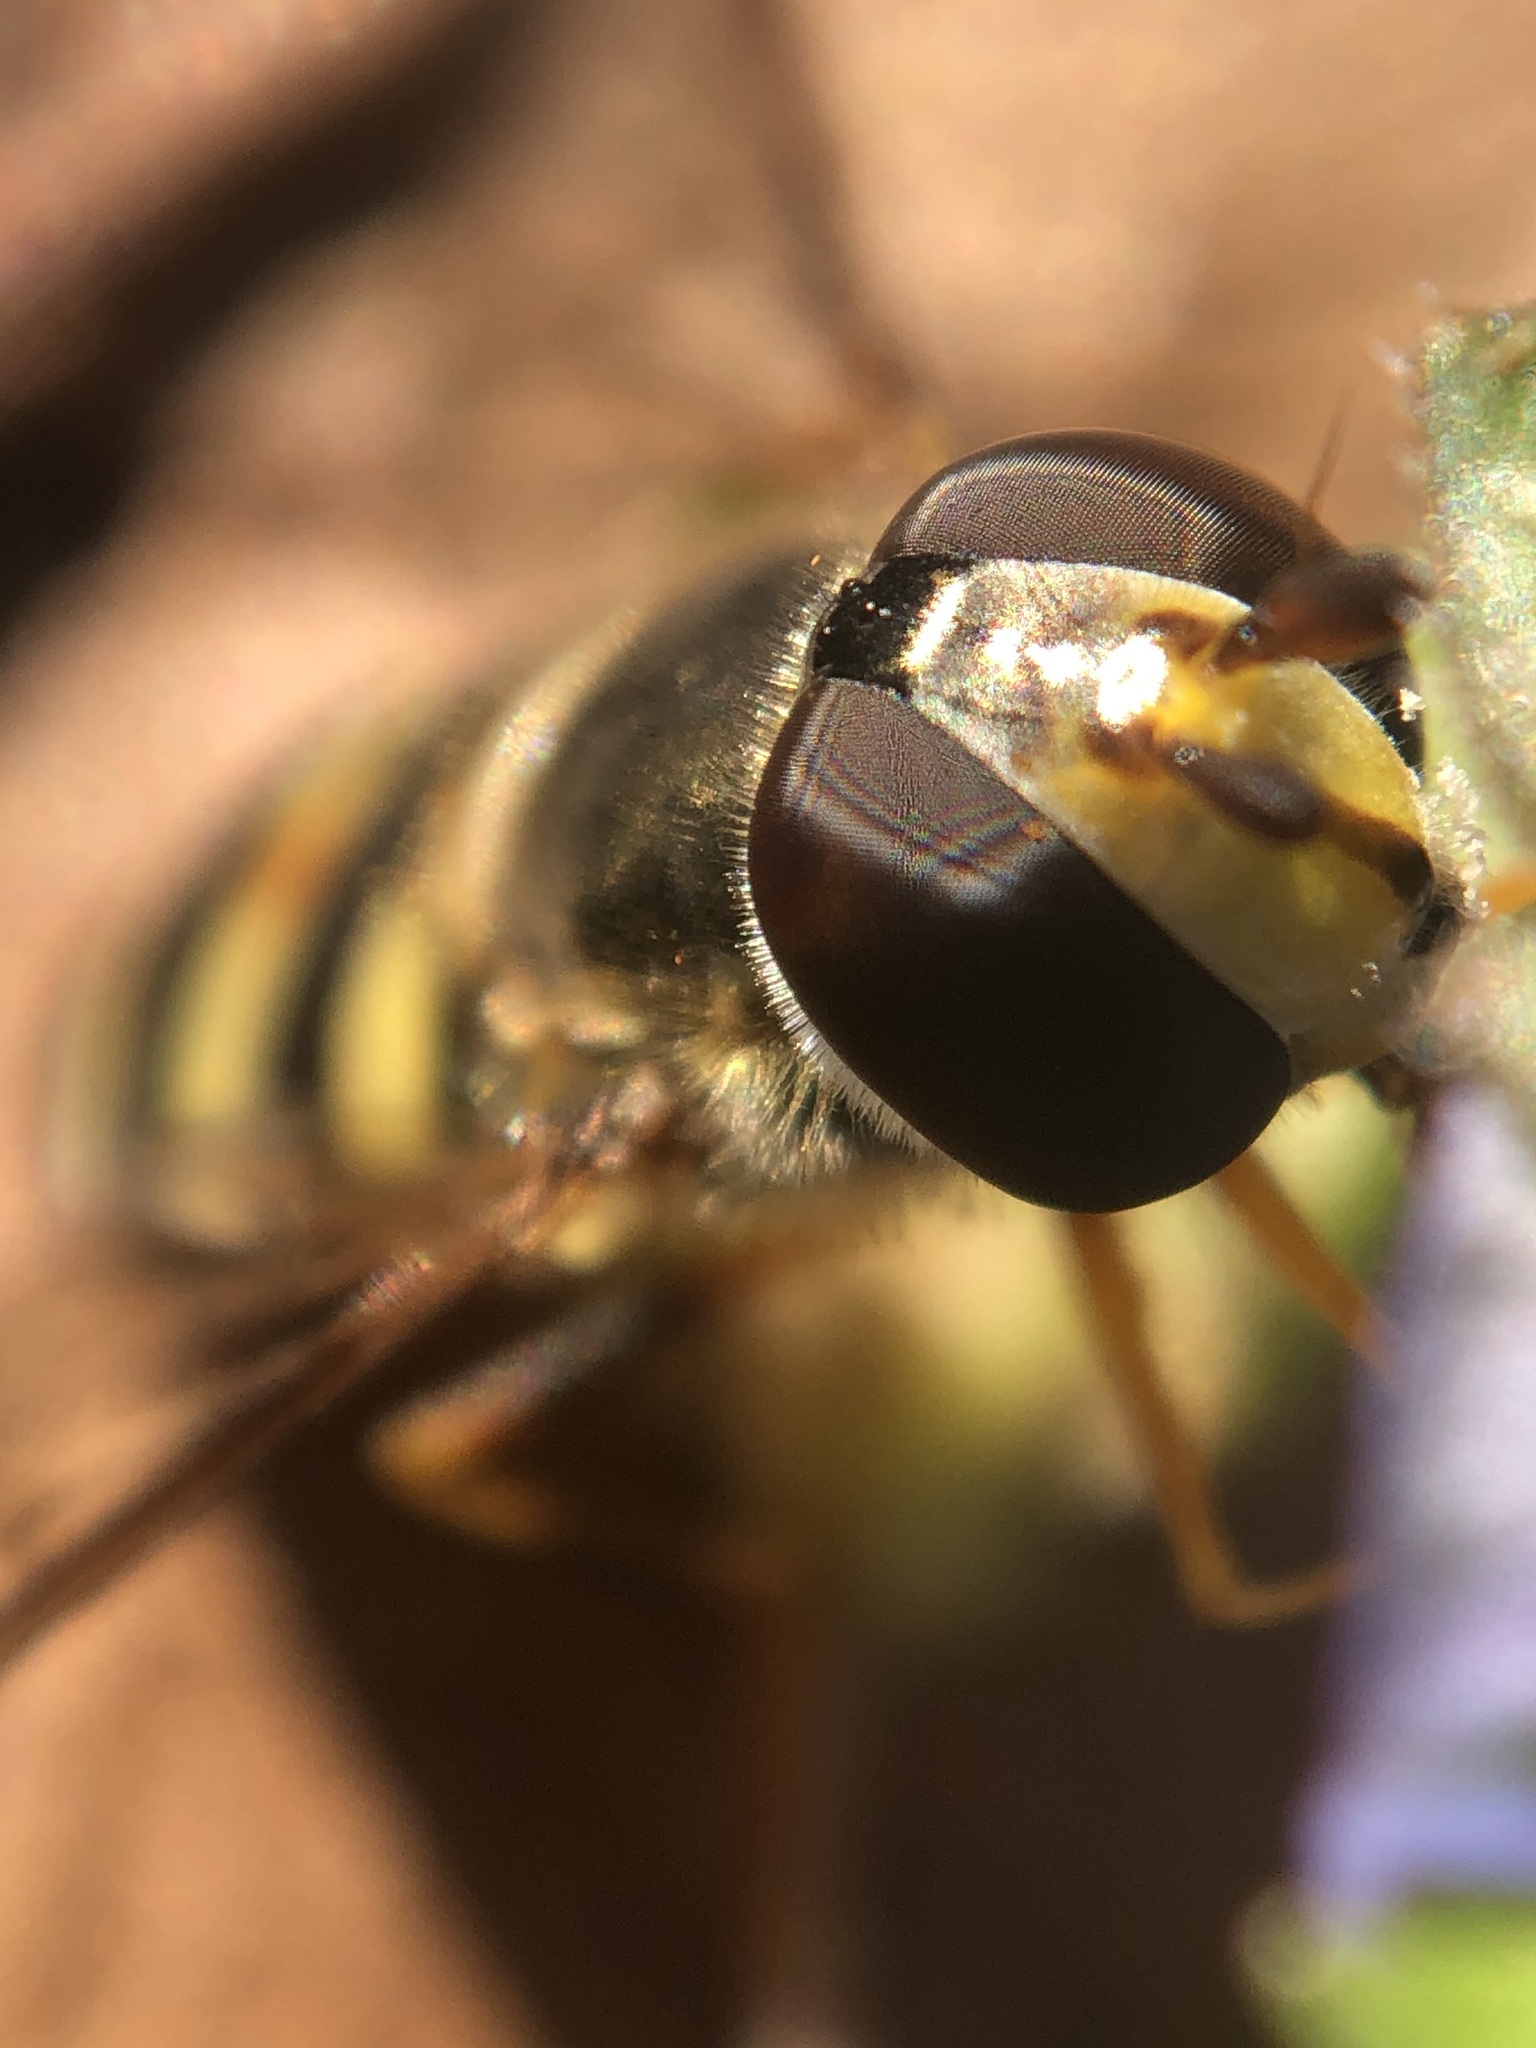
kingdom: Animalia
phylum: Arthropoda
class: Insecta
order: Diptera
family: Syrphidae
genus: Eupeodes
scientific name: Eupeodes
